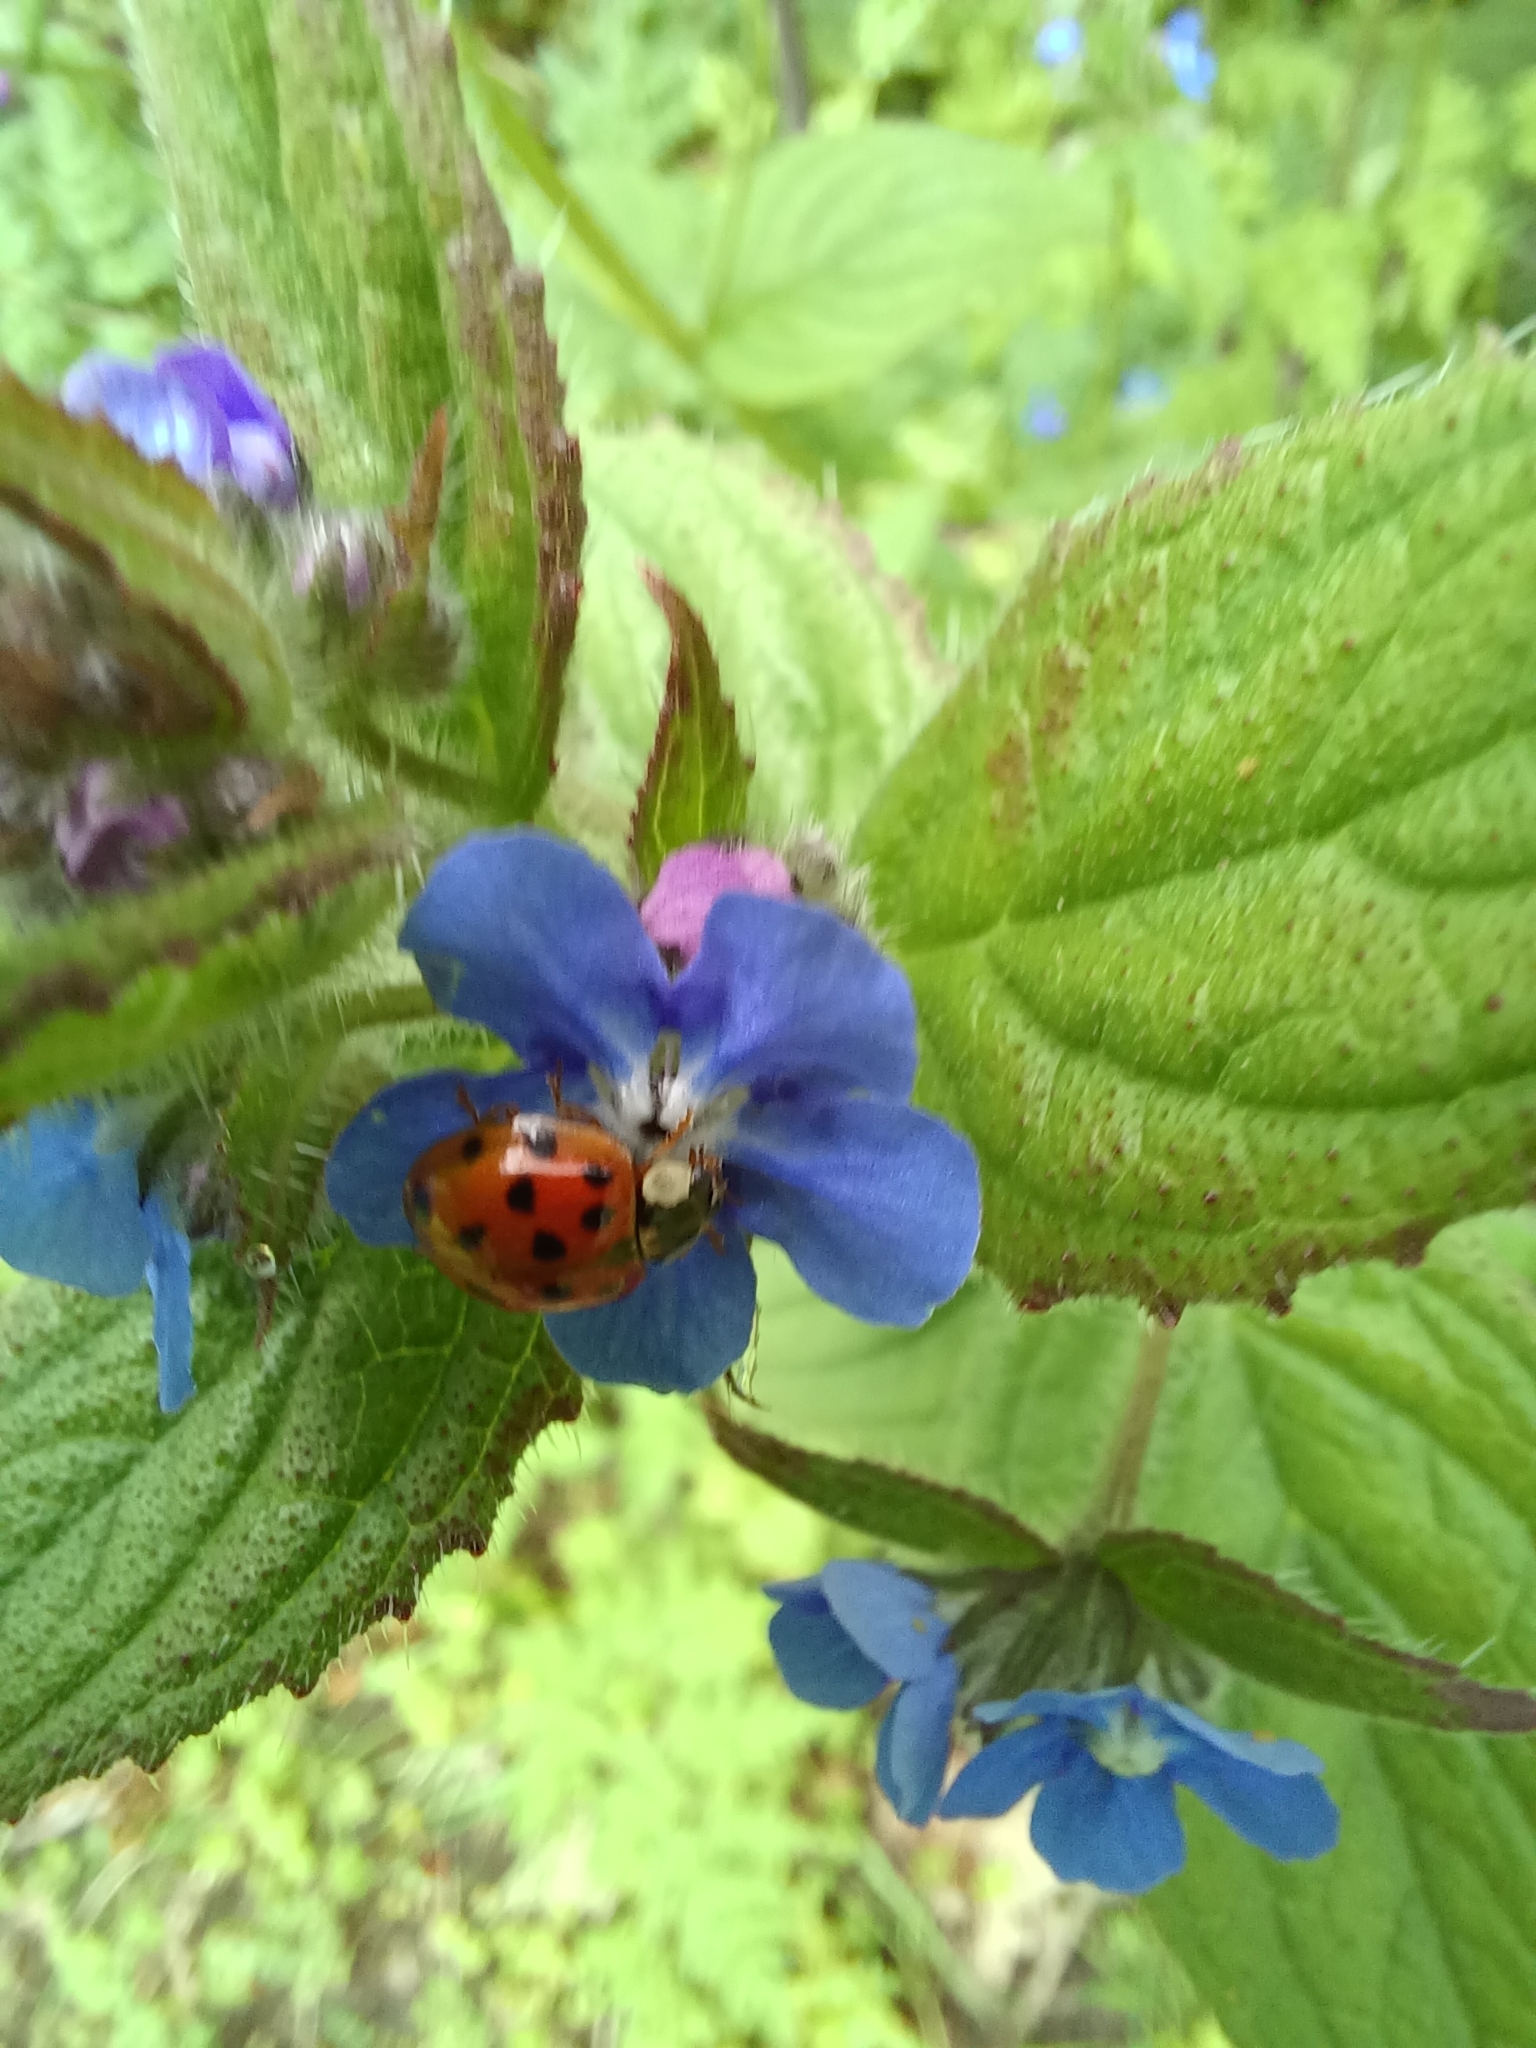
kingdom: Animalia
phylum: Arthropoda
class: Insecta
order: Coleoptera
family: Coccinellidae
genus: Harmonia
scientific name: Harmonia axyridis
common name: Harlequin ladybird
